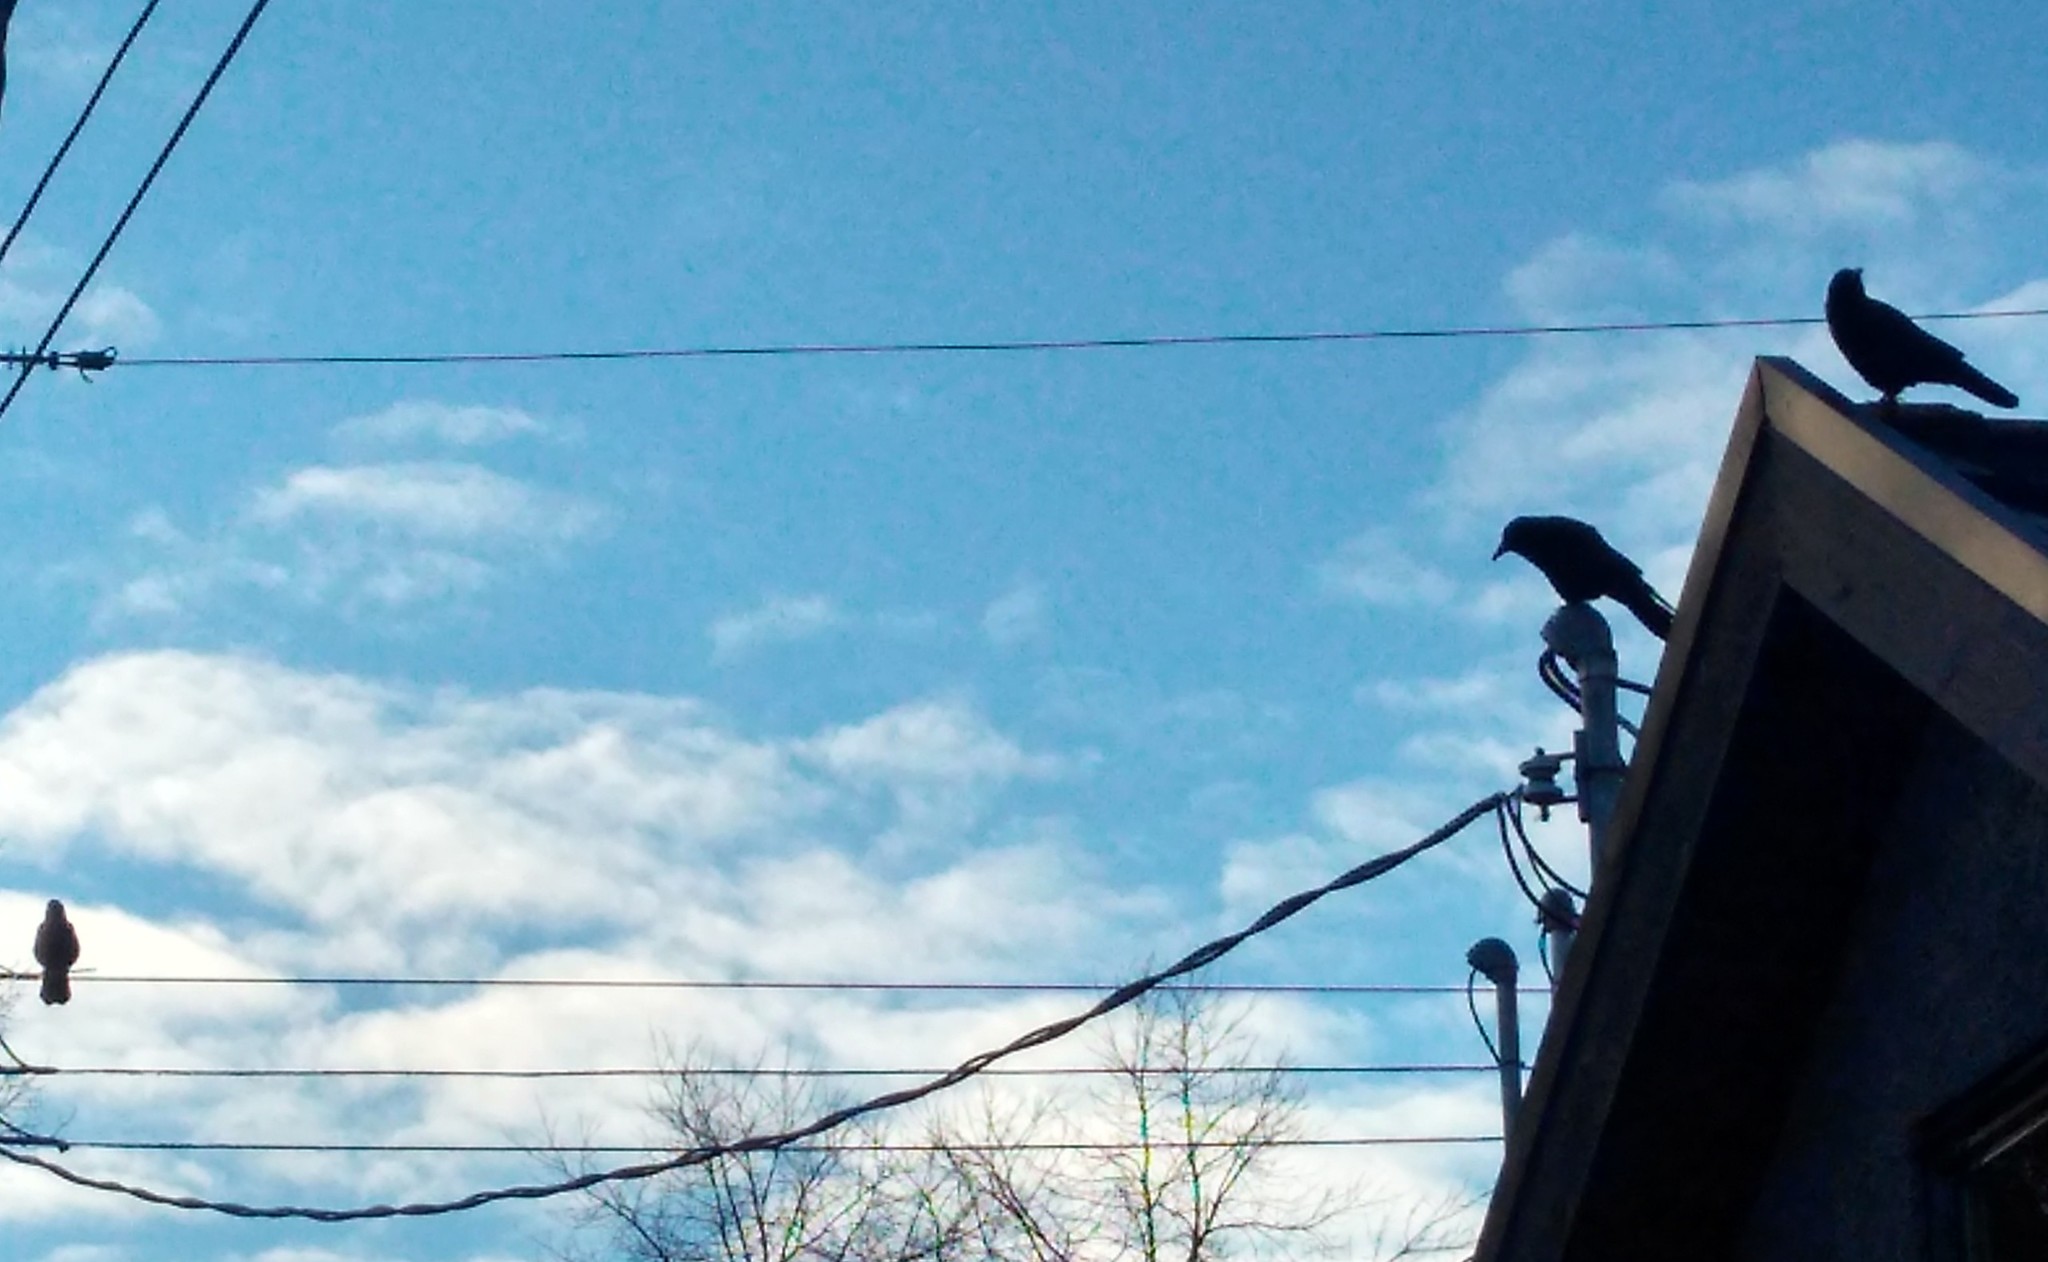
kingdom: Animalia
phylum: Chordata
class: Aves
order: Passeriformes
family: Corvidae
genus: Corvus
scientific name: Corvus brachyrhynchos
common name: American crow
